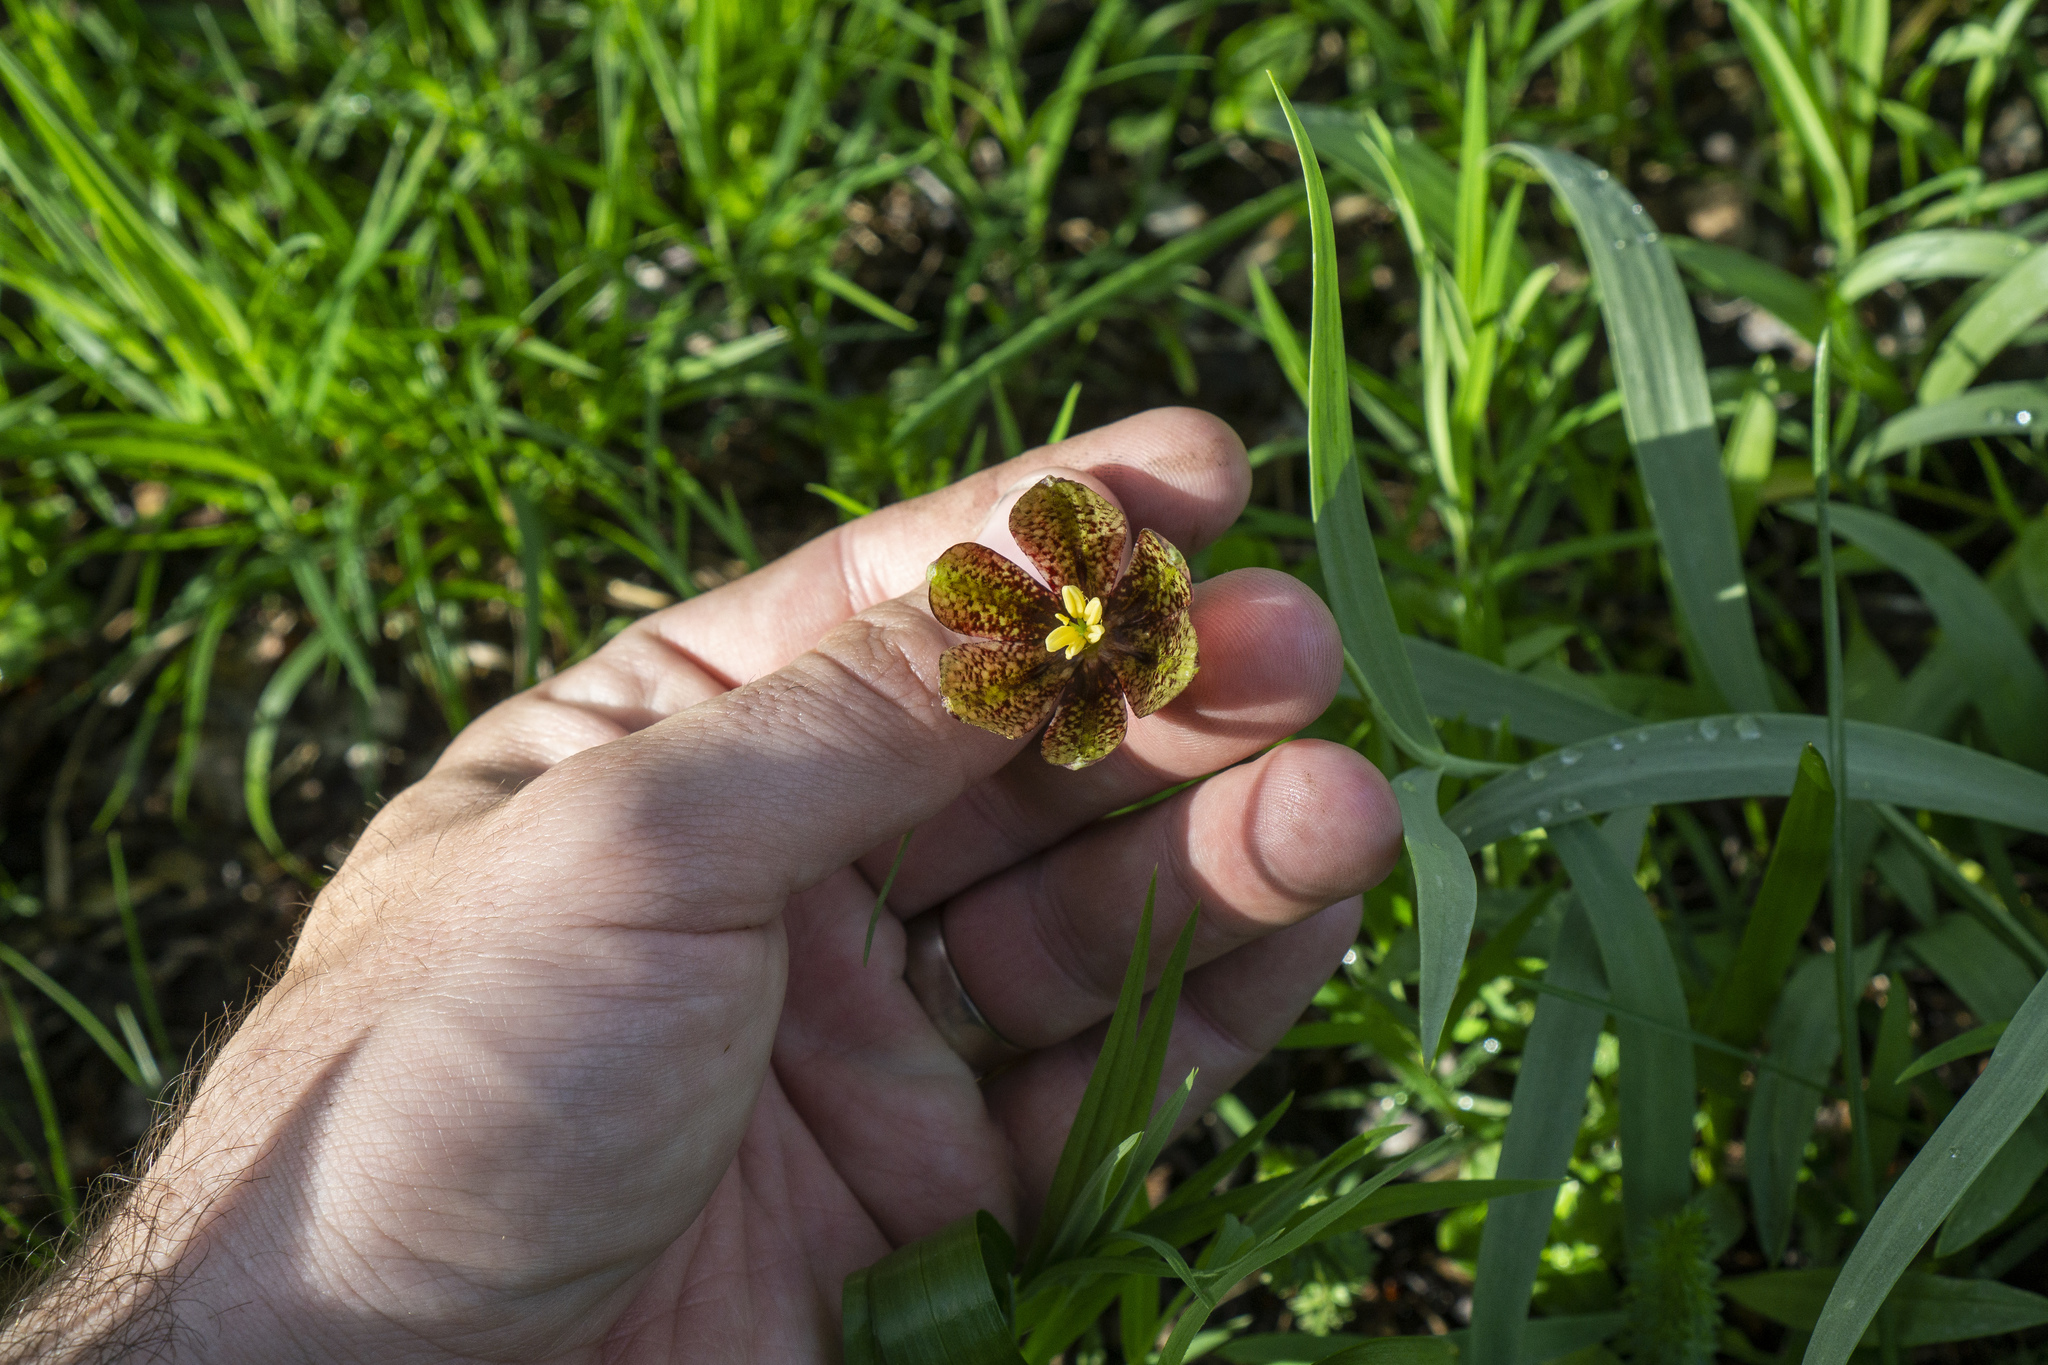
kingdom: Plantae
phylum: Tracheophyta
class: Liliopsida
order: Liliales
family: Liliaceae
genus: Fritillaria
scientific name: Fritillaria montana
